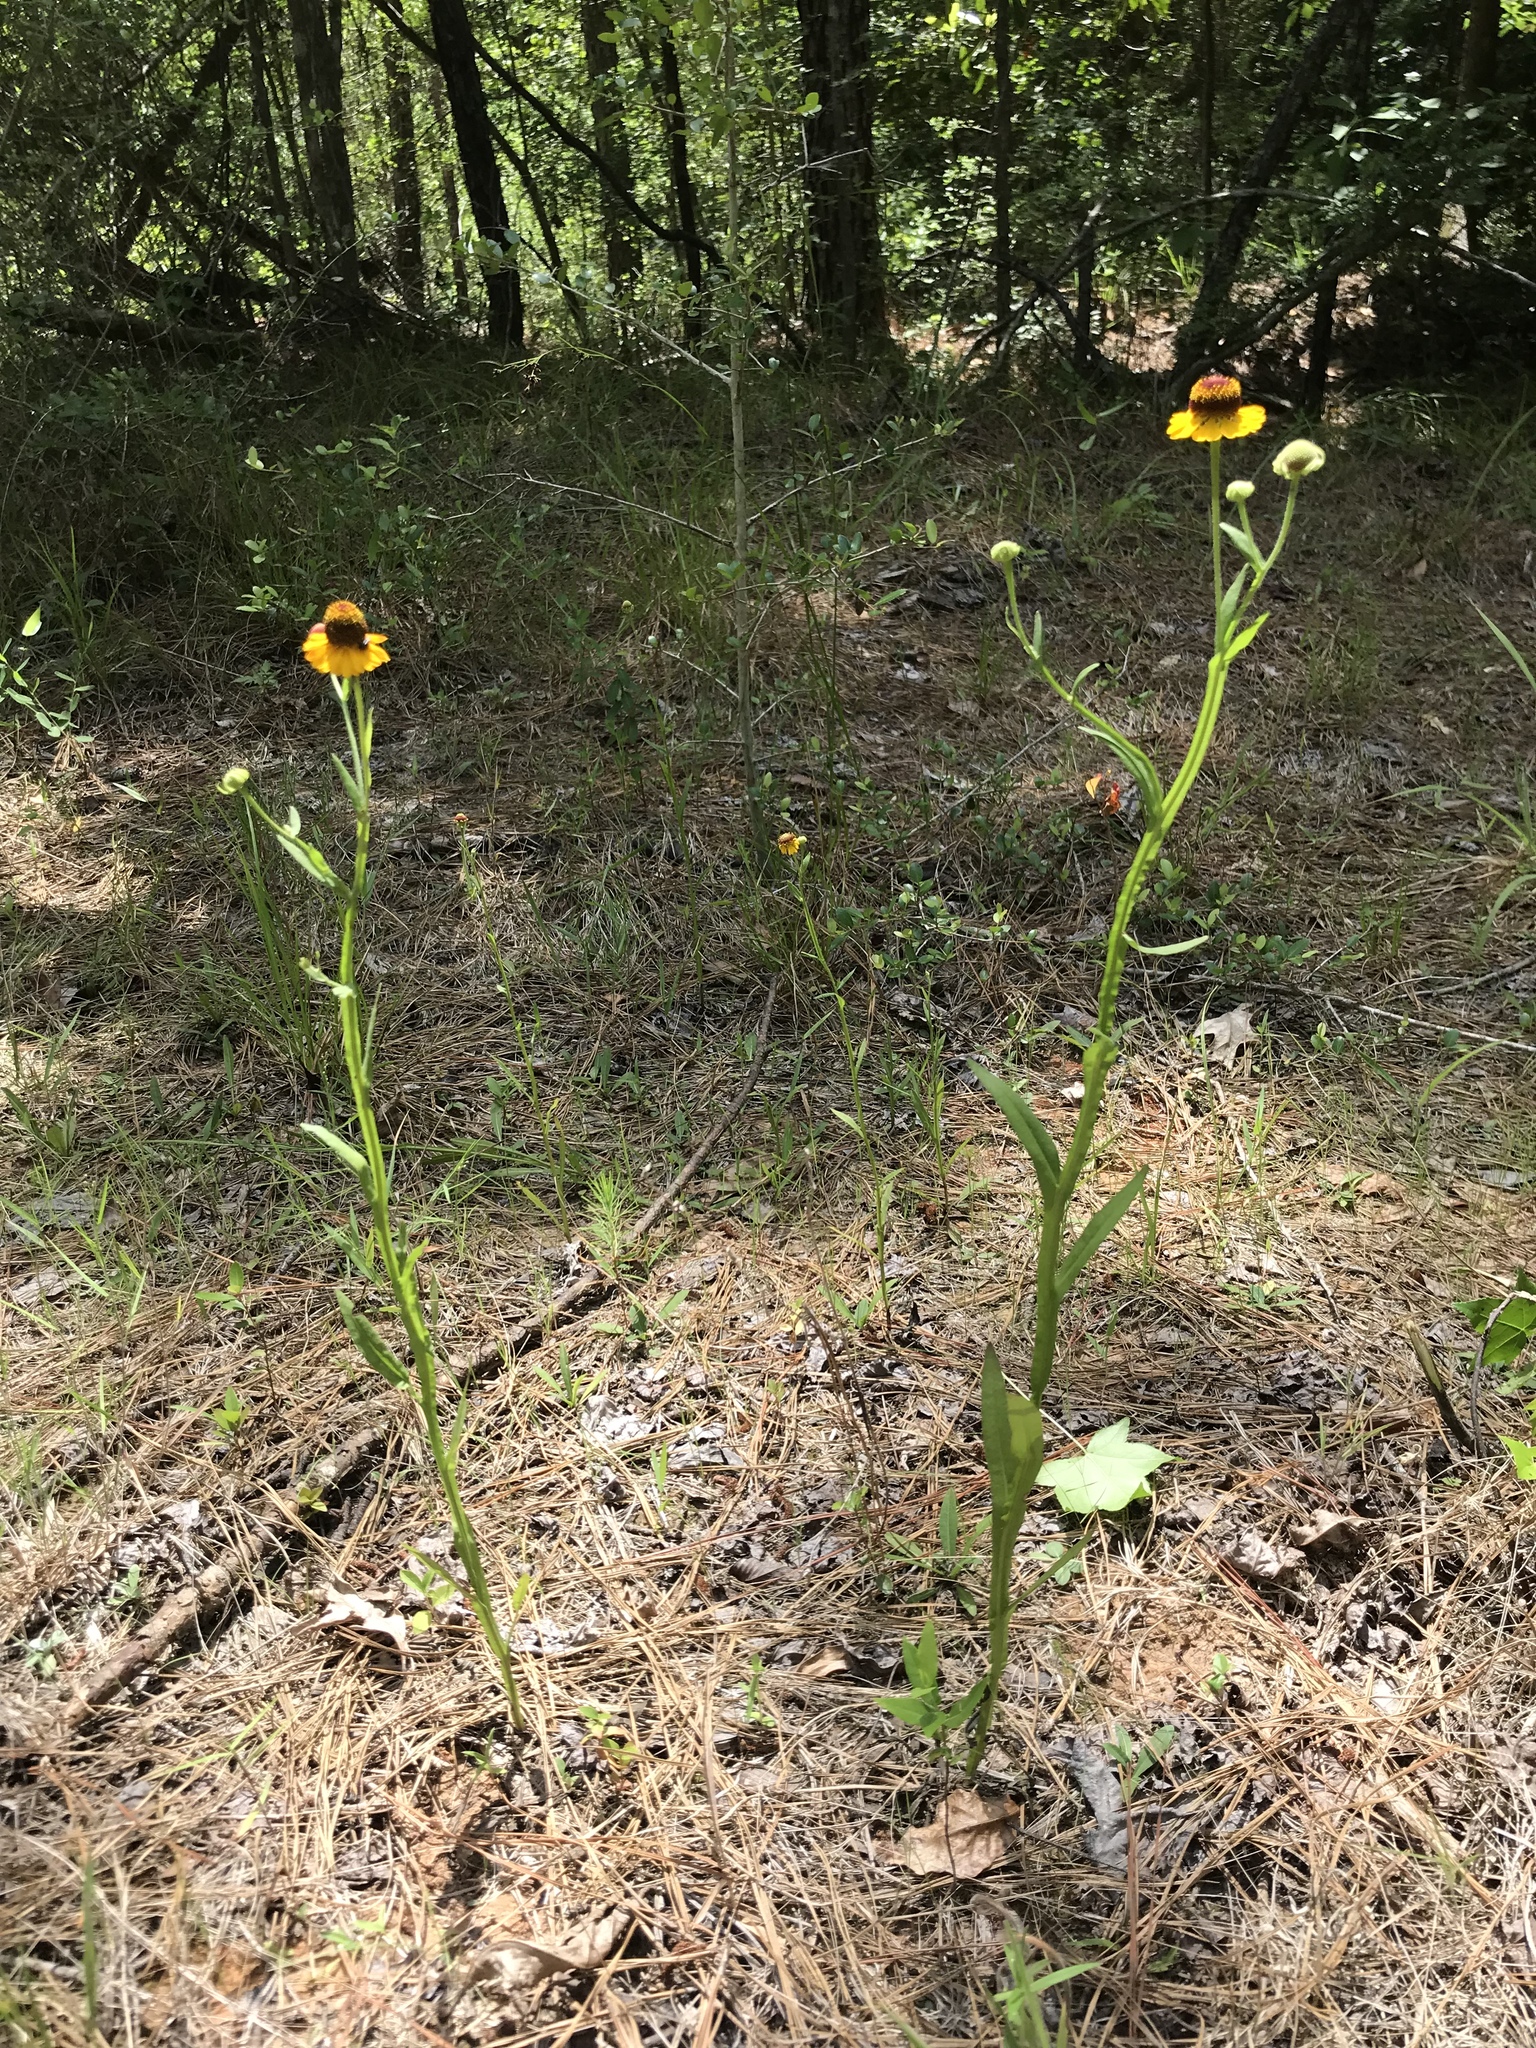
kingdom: Plantae
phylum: Tracheophyta
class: Magnoliopsida
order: Asterales
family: Asteraceae
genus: Helenium
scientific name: Helenium flexuosum
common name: Naked-flowered sneezeweed
